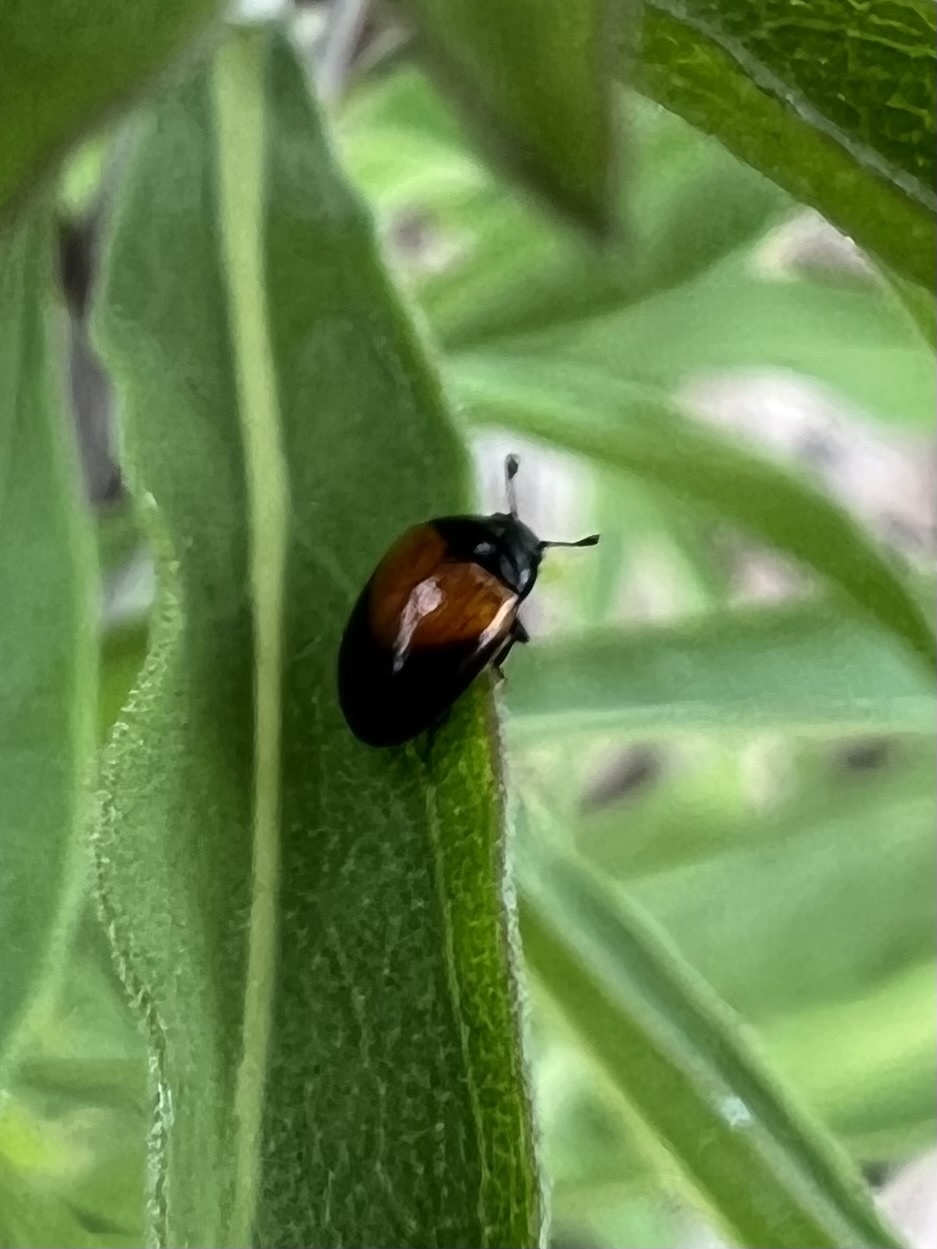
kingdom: Animalia
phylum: Arthropoda
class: Insecta
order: Coleoptera
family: Erotylidae
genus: Tritoma
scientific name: Tritoma pulchra
